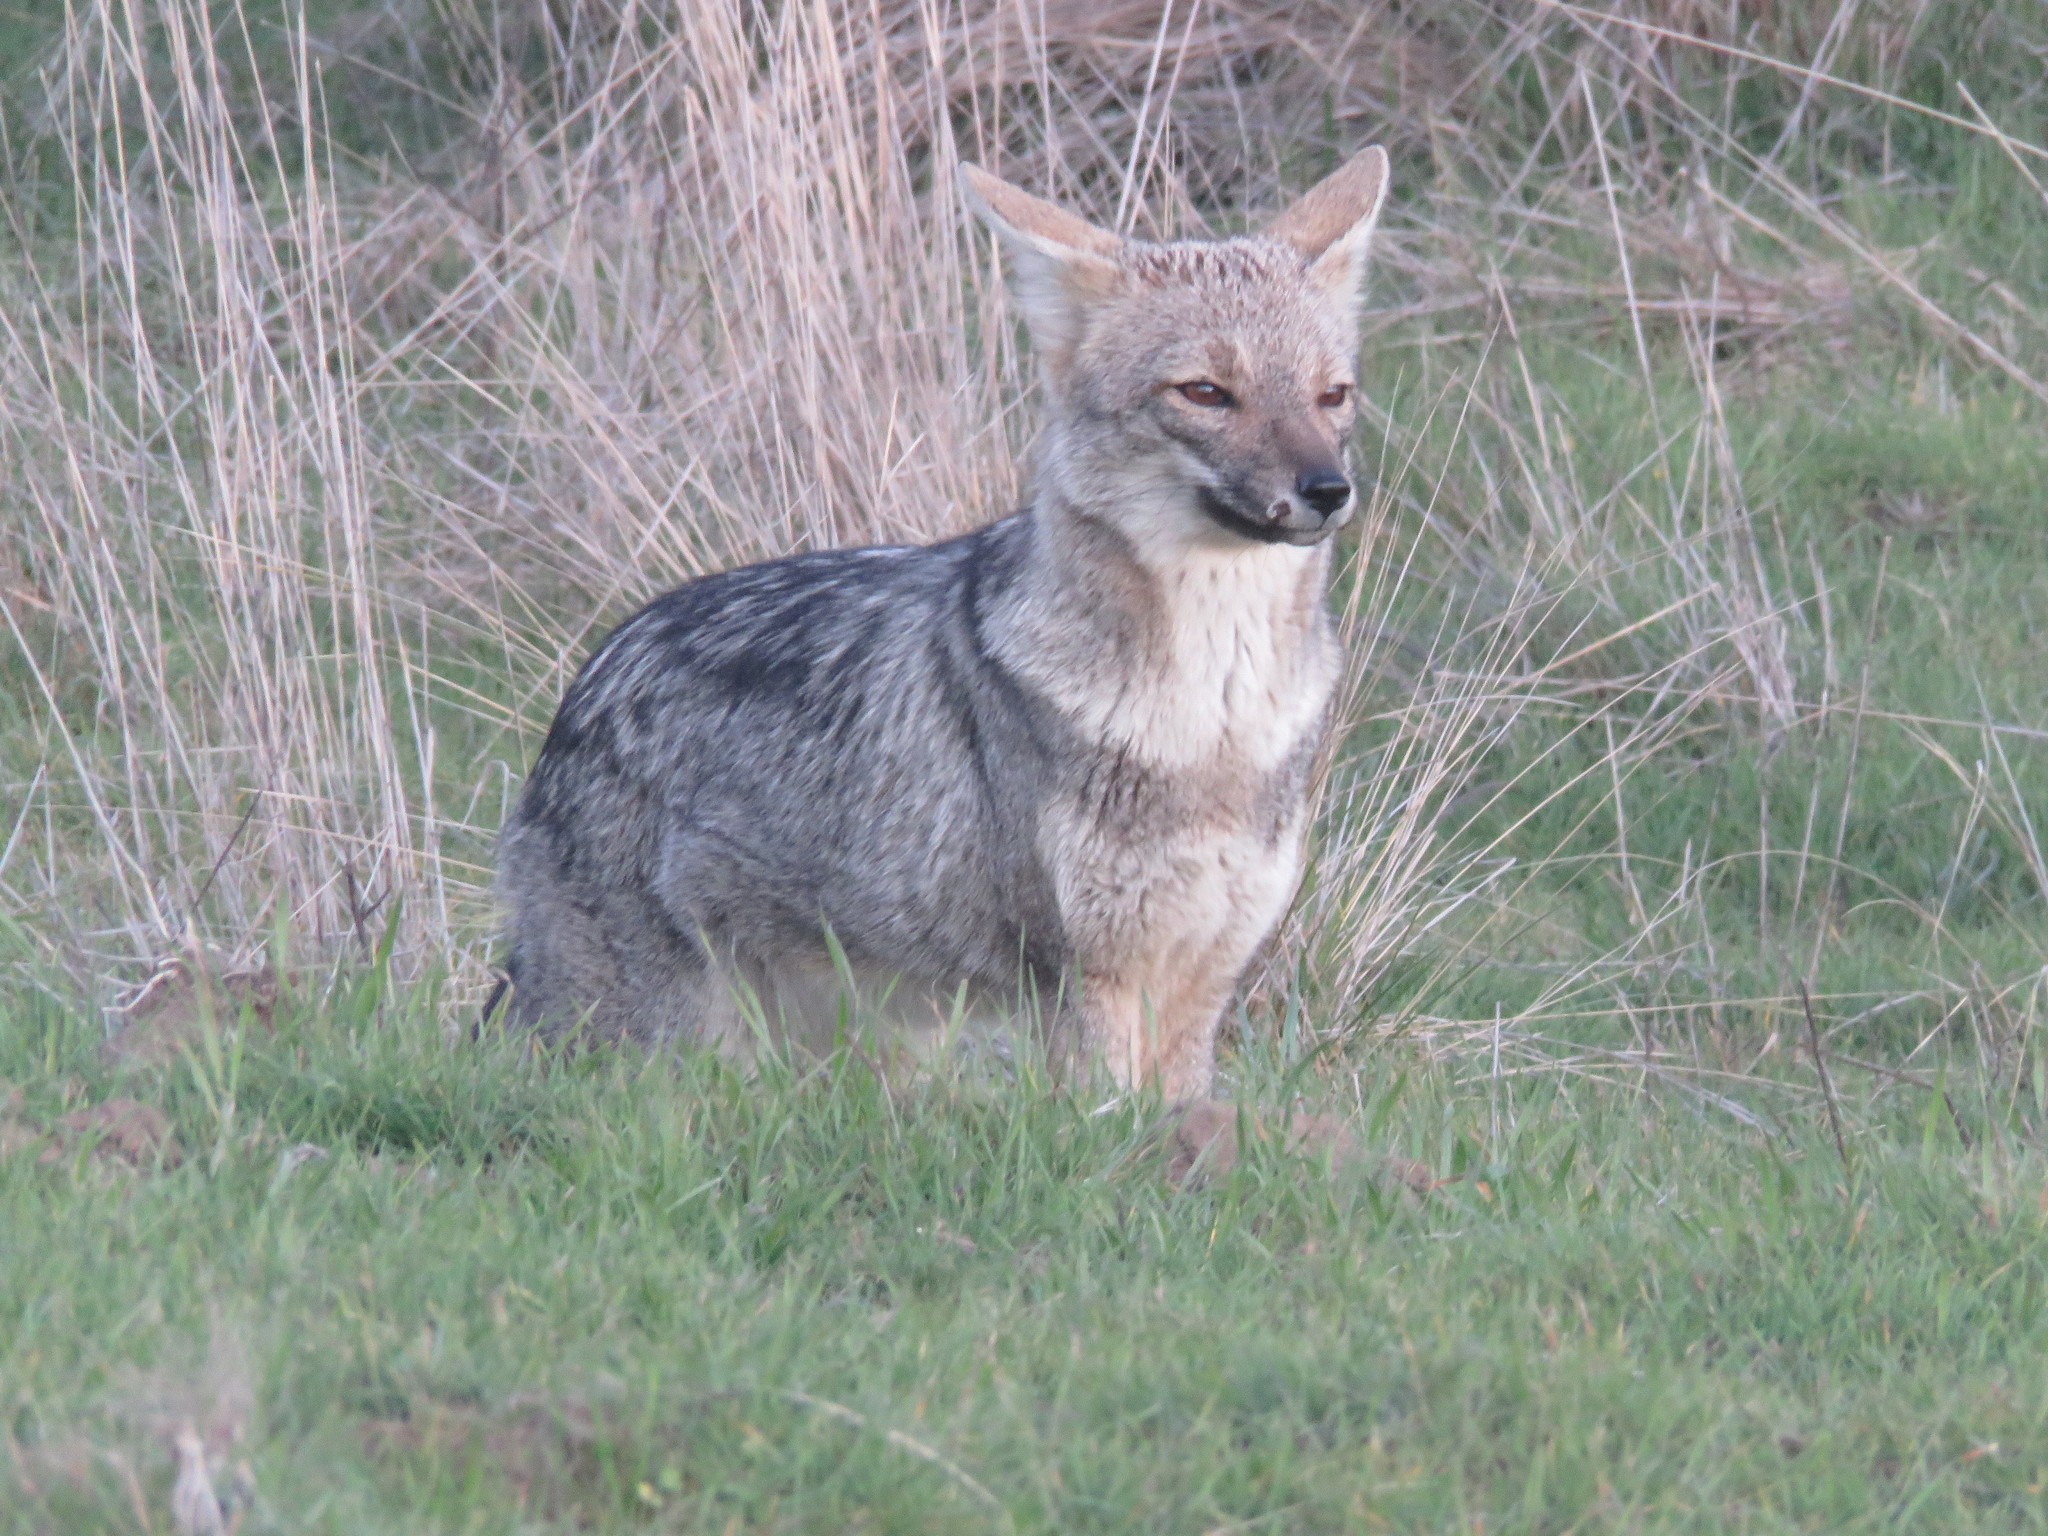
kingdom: Animalia
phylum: Chordata
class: Mammalia
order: Carnivora
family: Canidae
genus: Lycalopex
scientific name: Lycalopex gymnocercus
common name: Pampas fox
